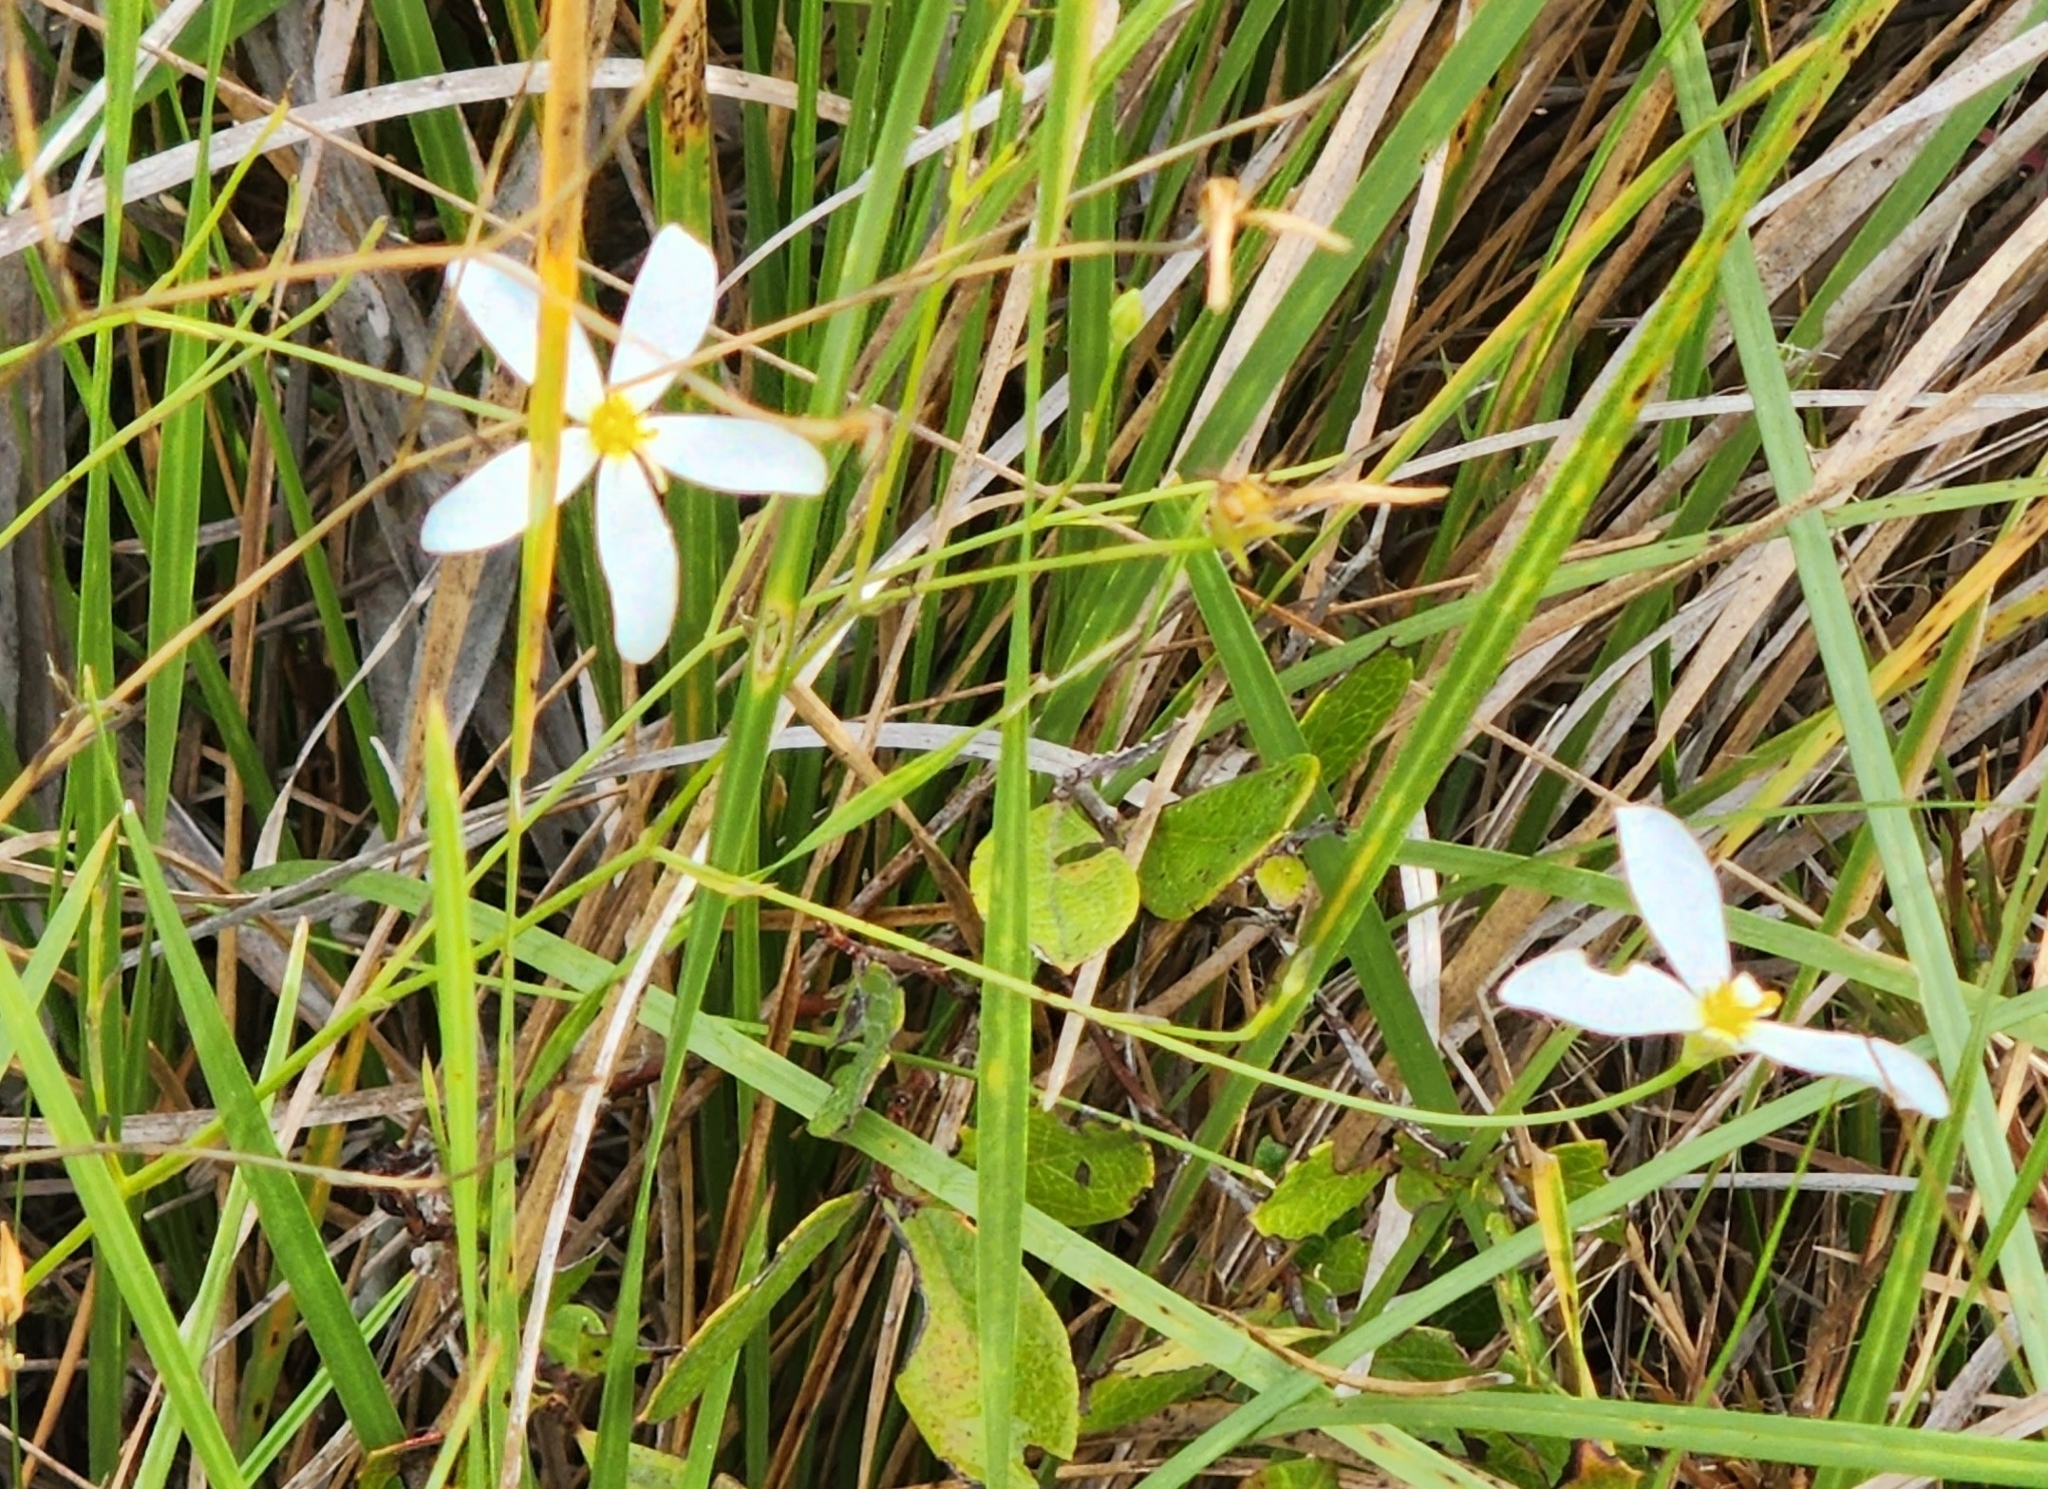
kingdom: Plantae
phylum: Tracheophyta
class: Magnoliopsida
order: Gentianales
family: Gentianaceae
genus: Sabatia
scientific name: Sabatia brevifolia
